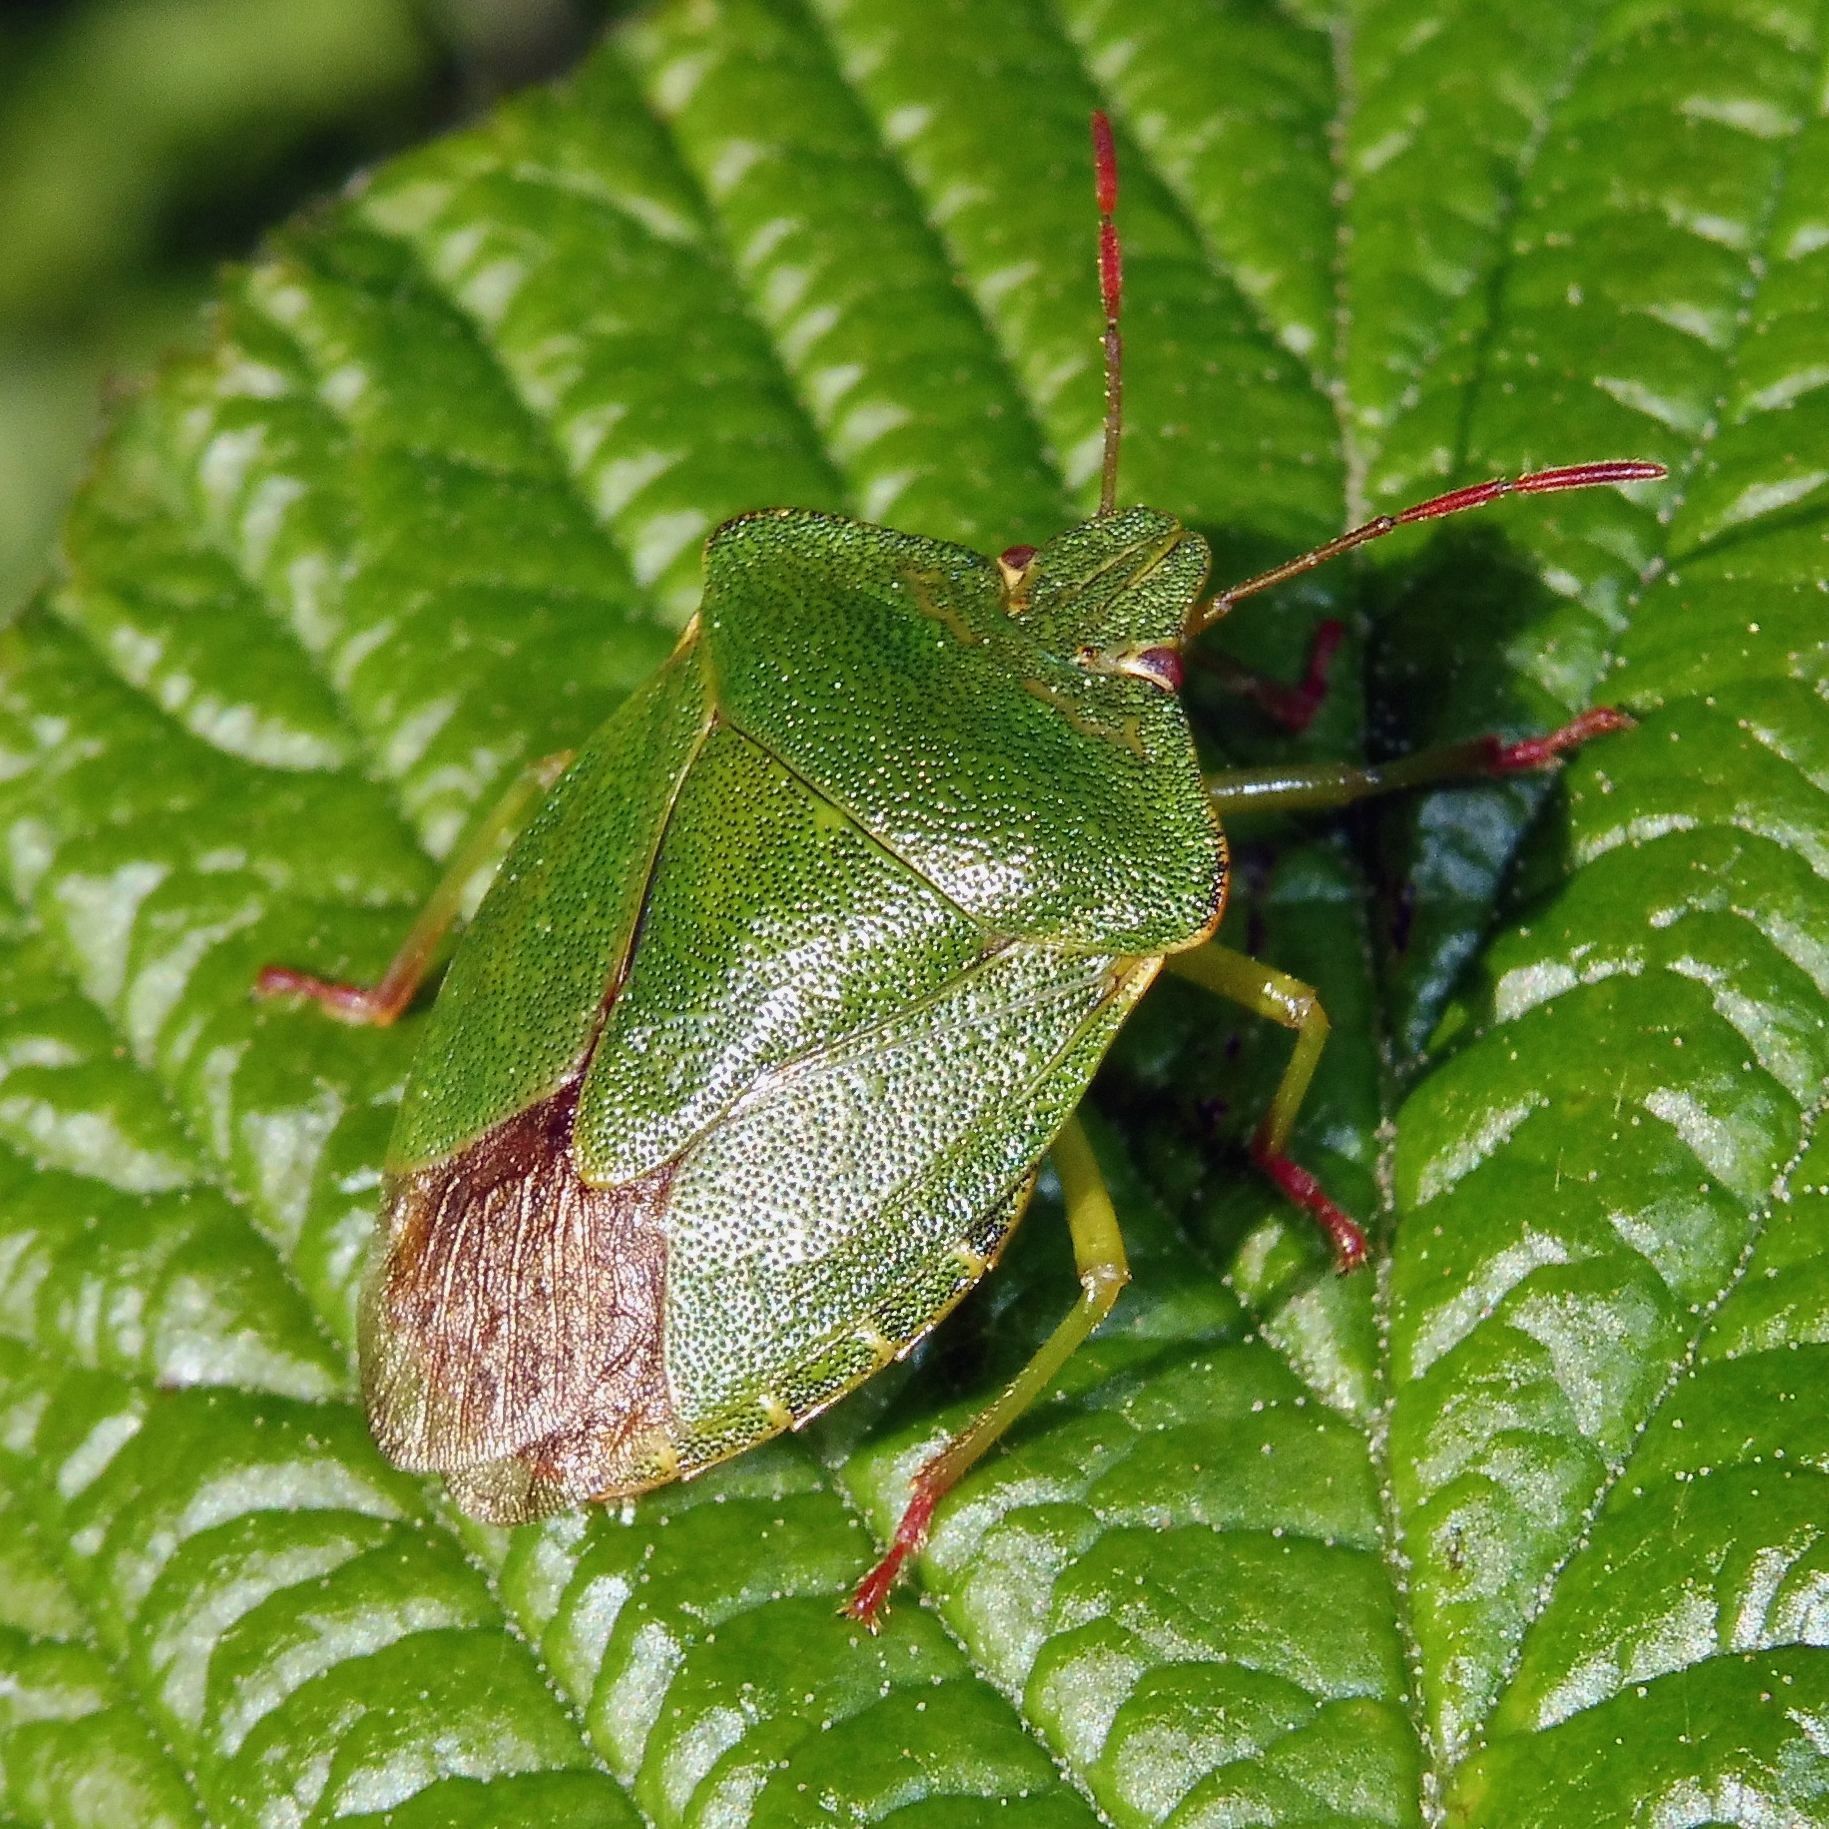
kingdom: Animalia
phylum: Arthropoda
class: Insecta
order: Hemiptera
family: Pentatomidae
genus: Palomena
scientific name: Palomena prasina
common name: Green shieldbug
